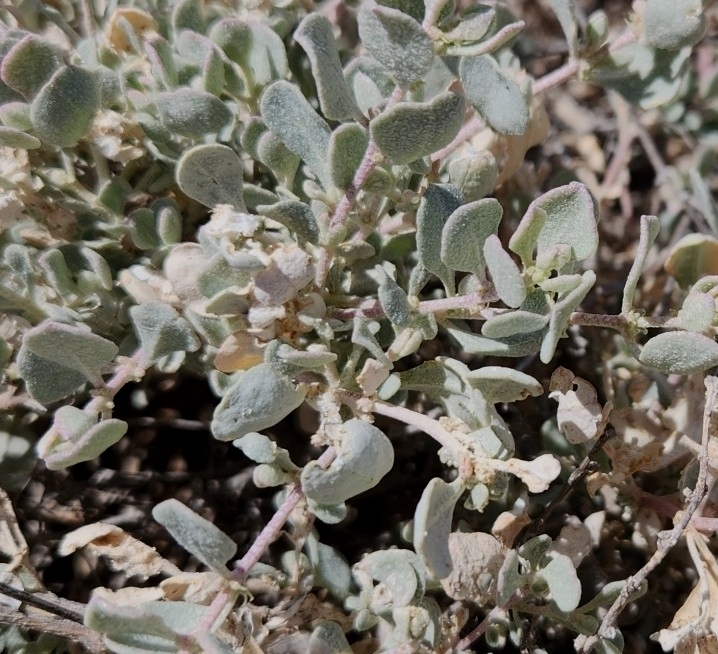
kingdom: Plantae
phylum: Tracheophyta
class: Magnoliopsida
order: Caryophyllales
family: Amaranthaceae
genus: Atriplex
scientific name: Atriplex barclayana
